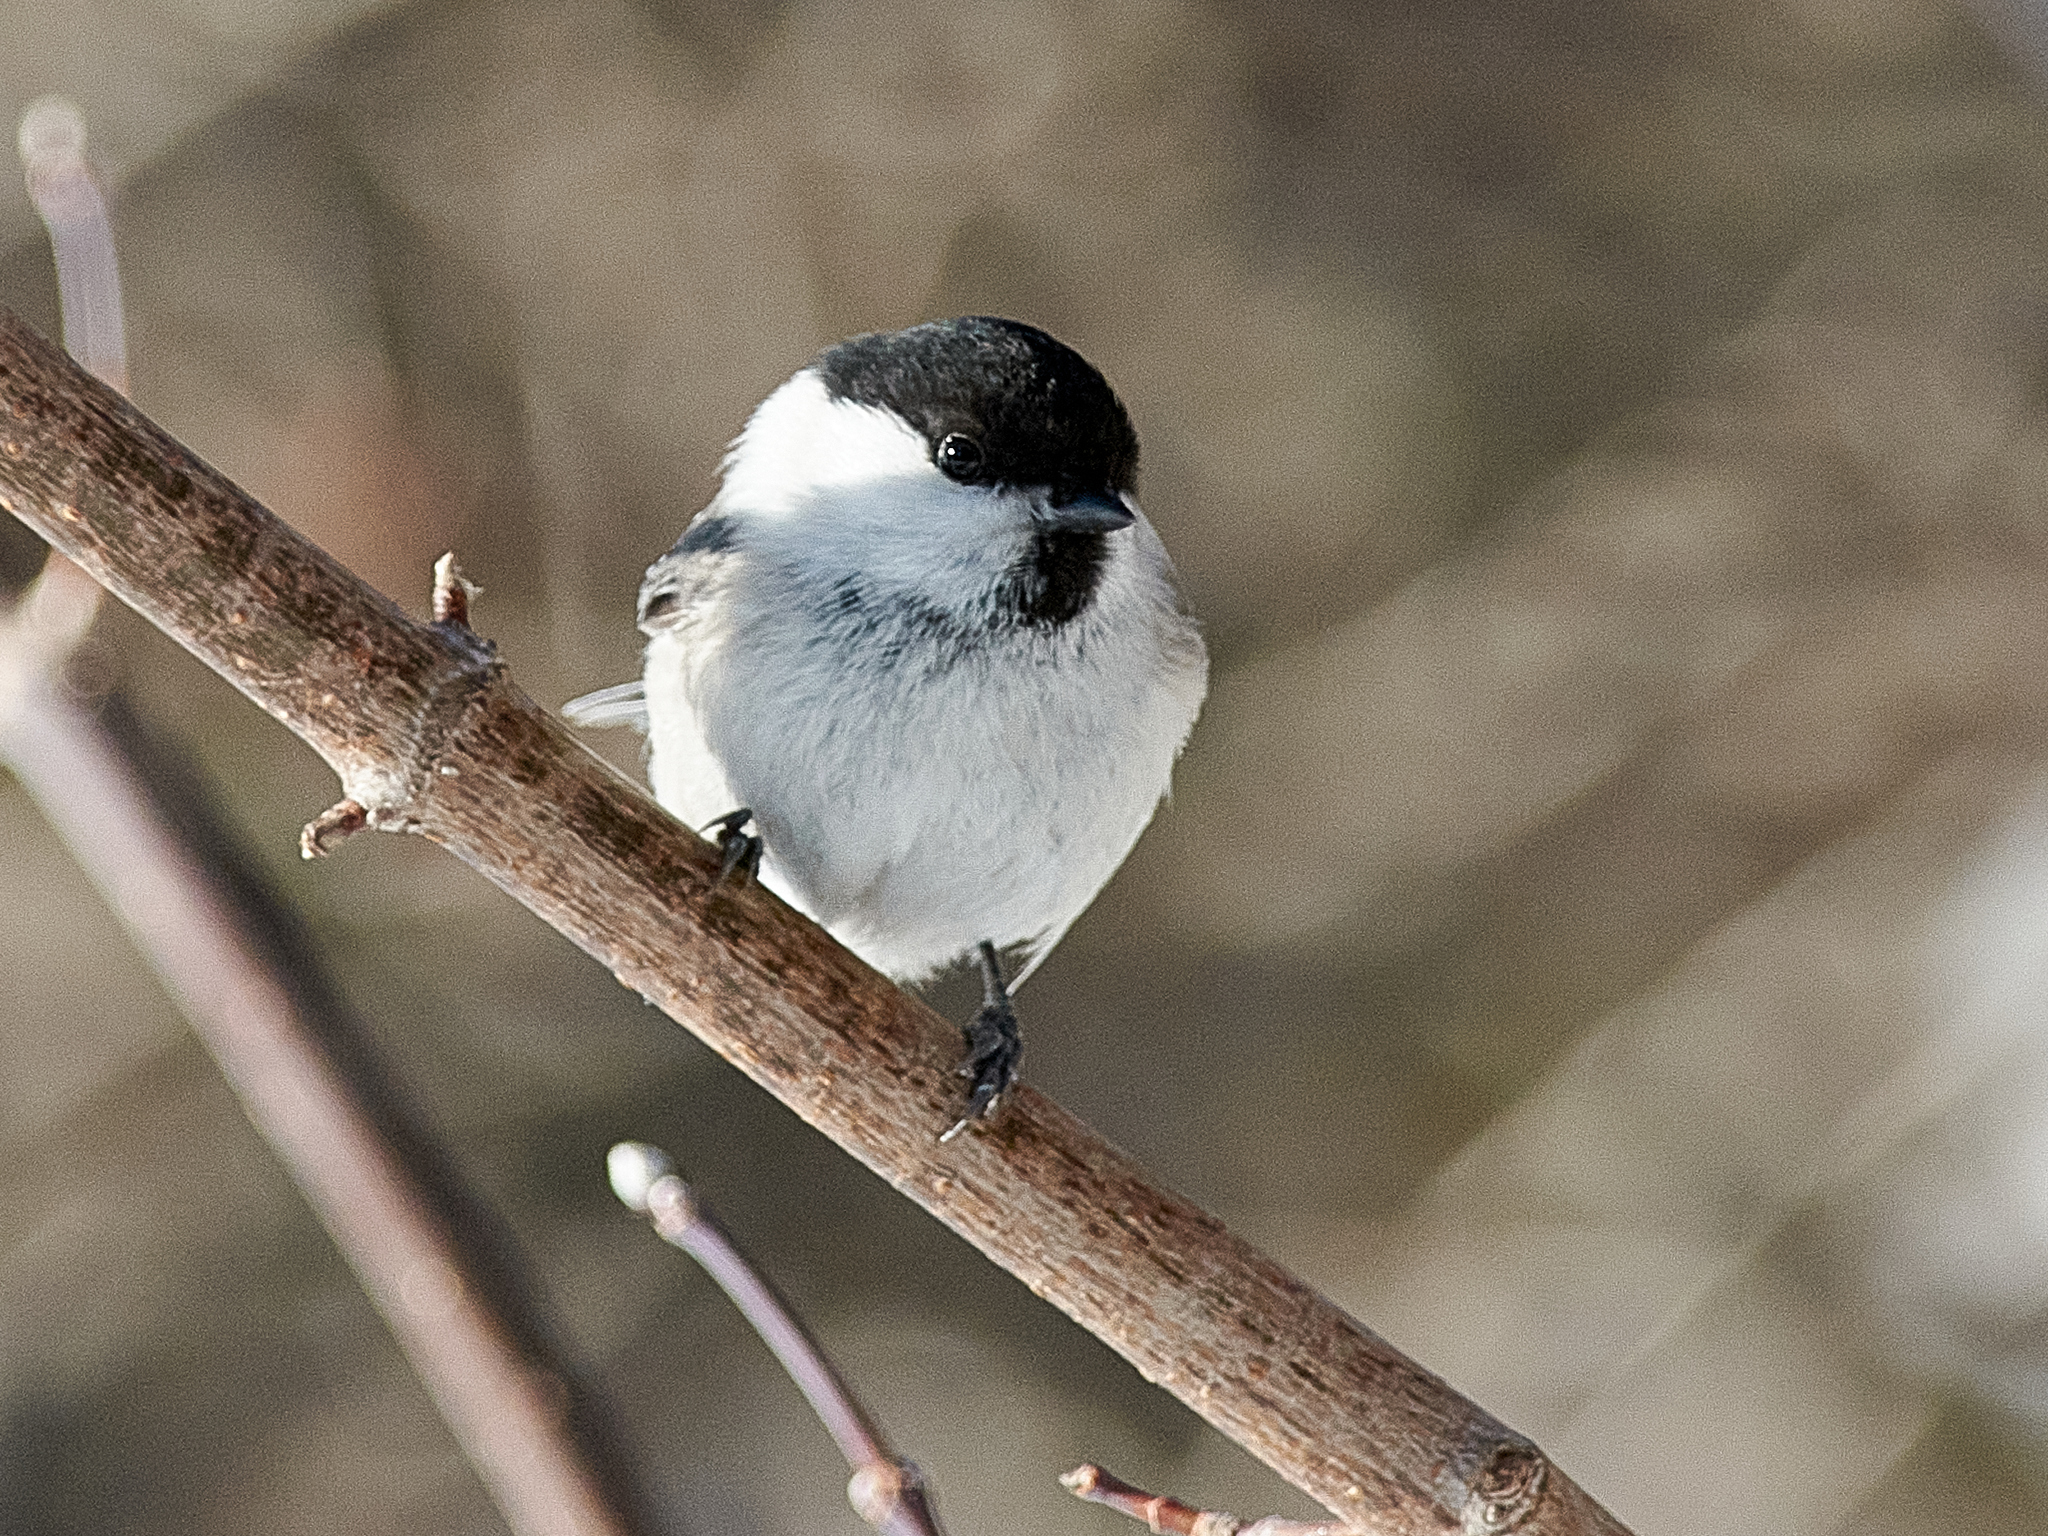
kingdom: Animalia
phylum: Chordata
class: Aves
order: Passeriformes
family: Paridae
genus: Poecile
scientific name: Poecile montanus
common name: Willow tit
